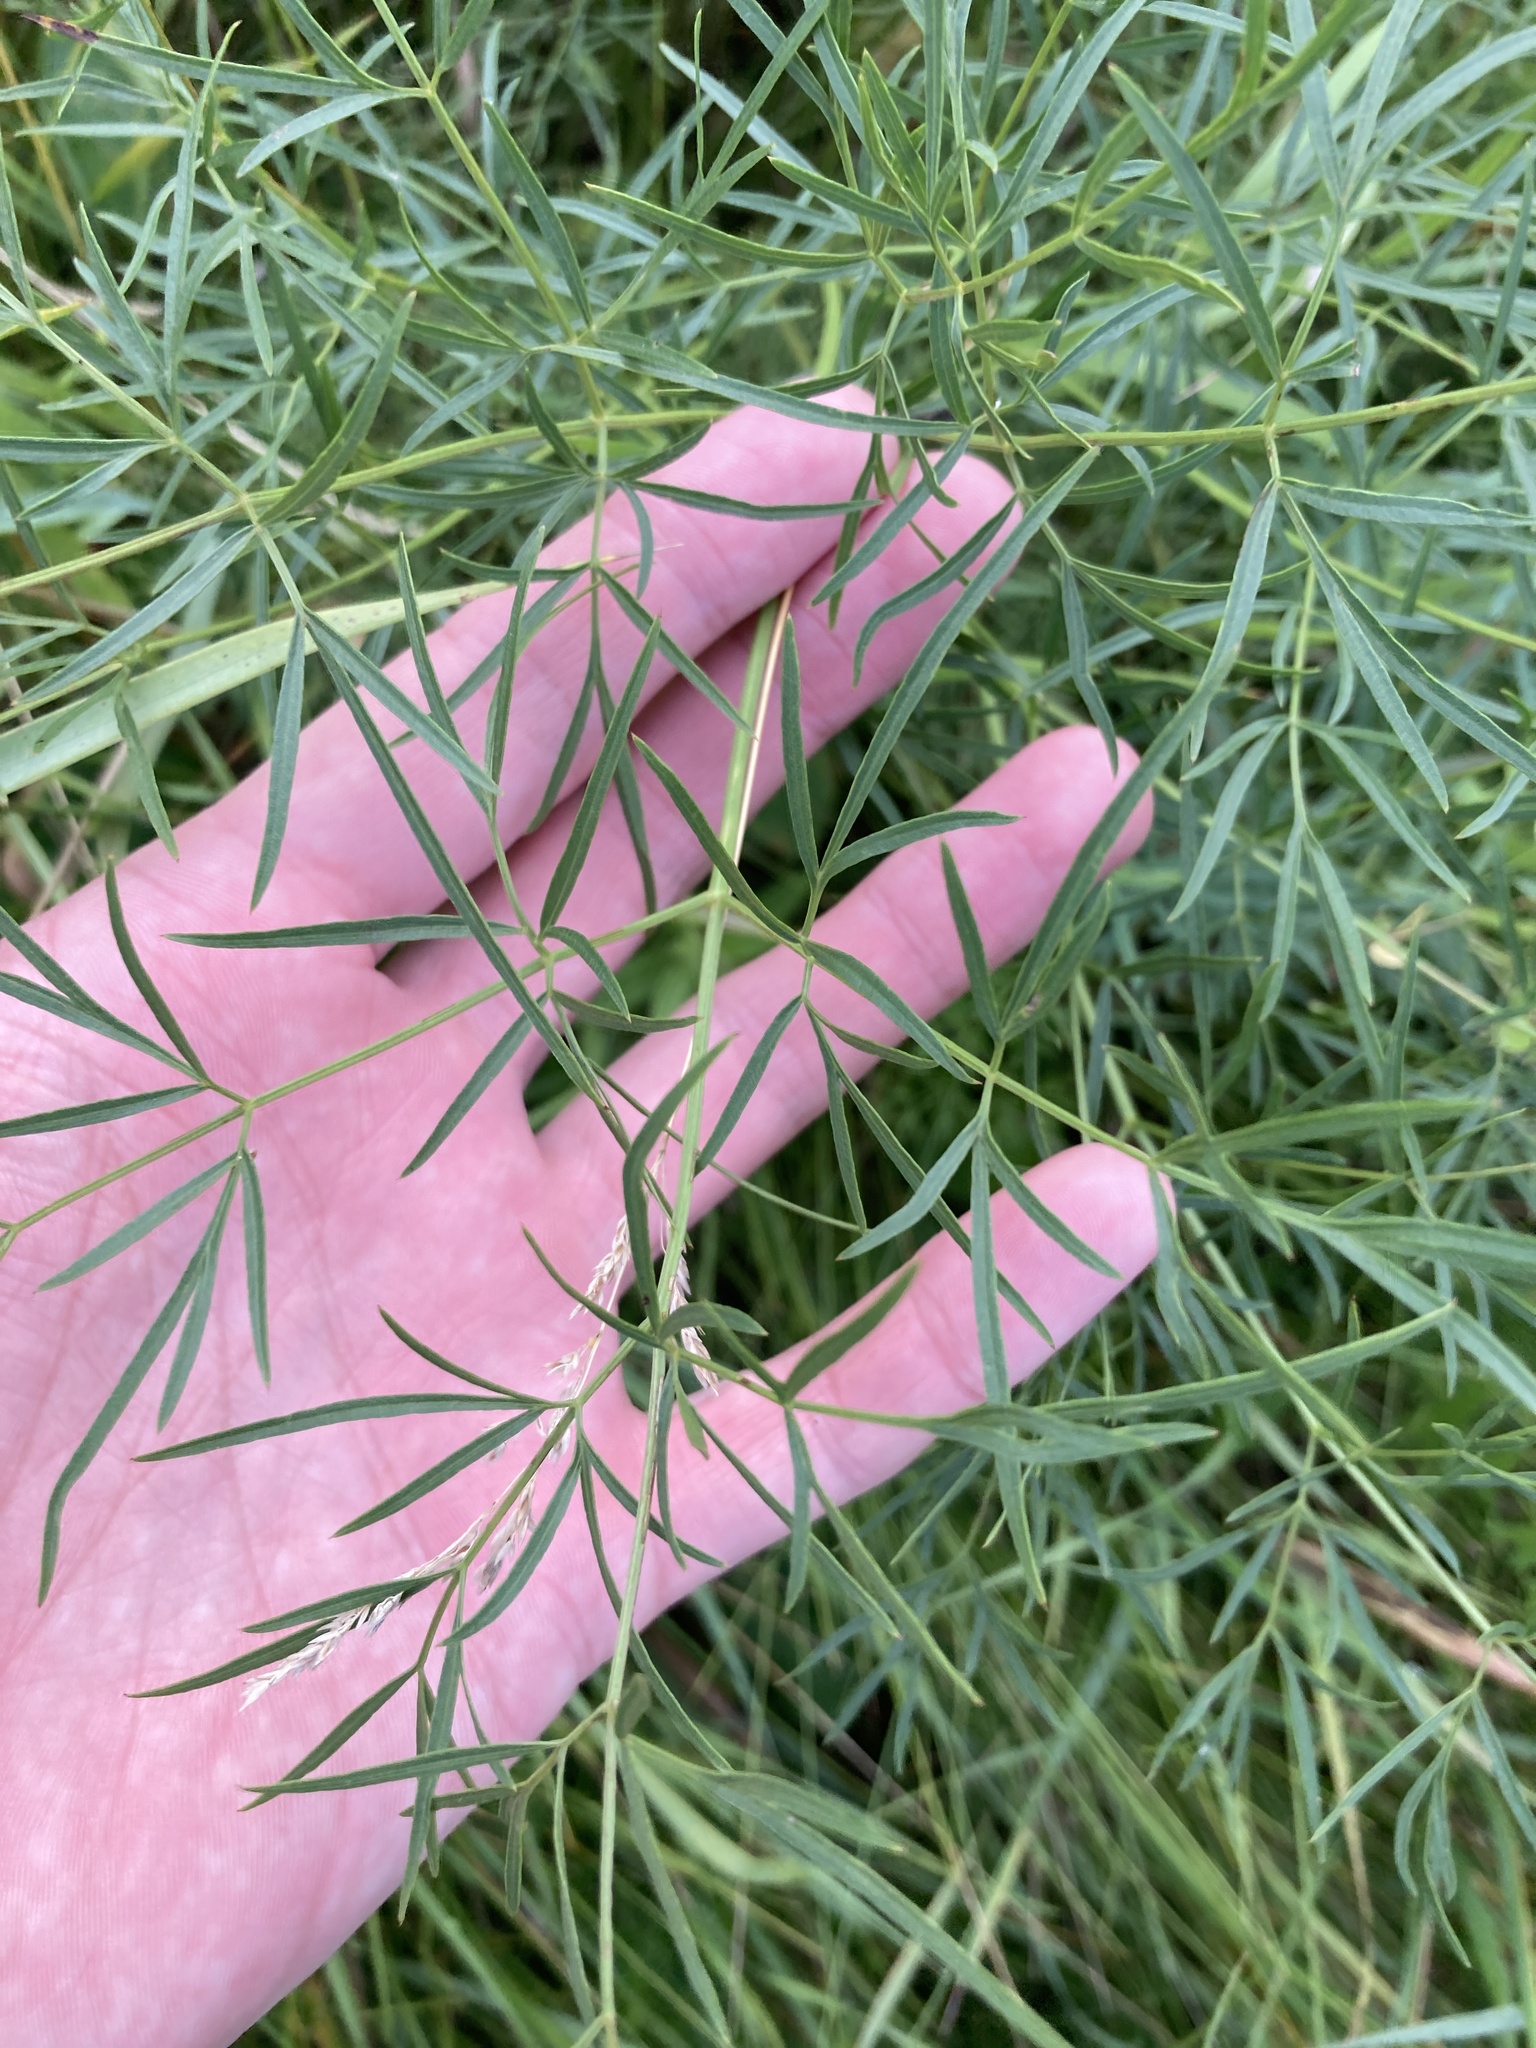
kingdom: Plantae
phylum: Tracheophyta
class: Magnoliopsida
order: Apiales
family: Apiaceae
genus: Silaum
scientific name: Silaum silaus
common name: Pepper-saxifrage
